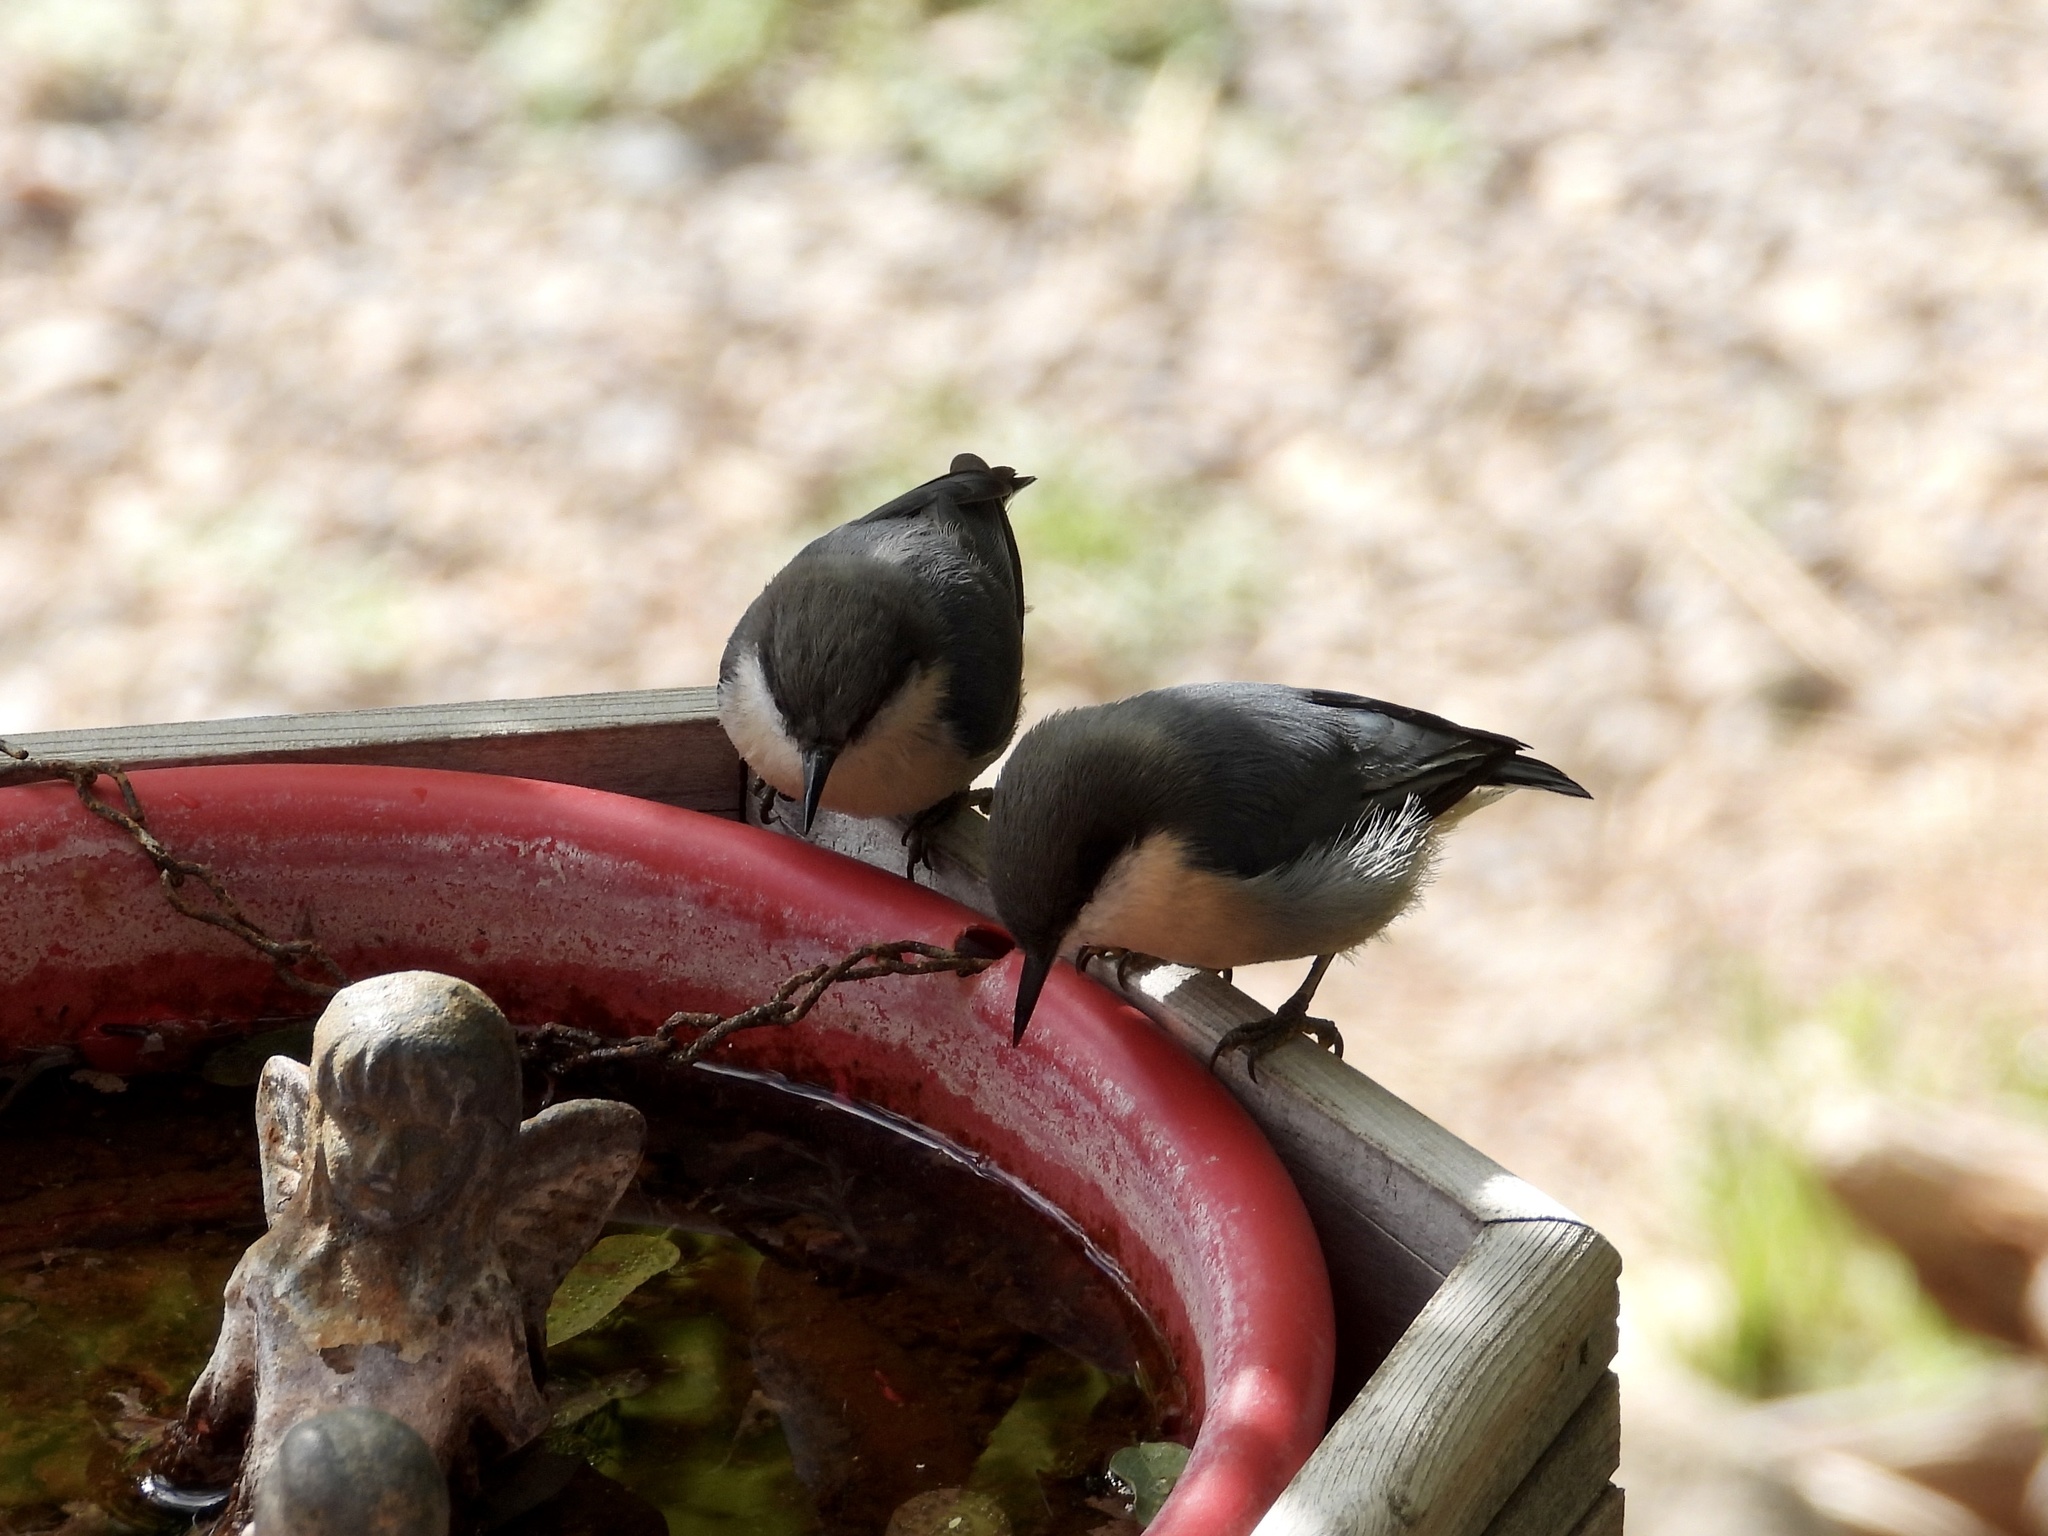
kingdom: Animalia
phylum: Chordata
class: Aves
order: Passeriformes
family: Sittidae
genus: Sitta
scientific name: Sitta pygmaea
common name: Pygmy nuthatch
